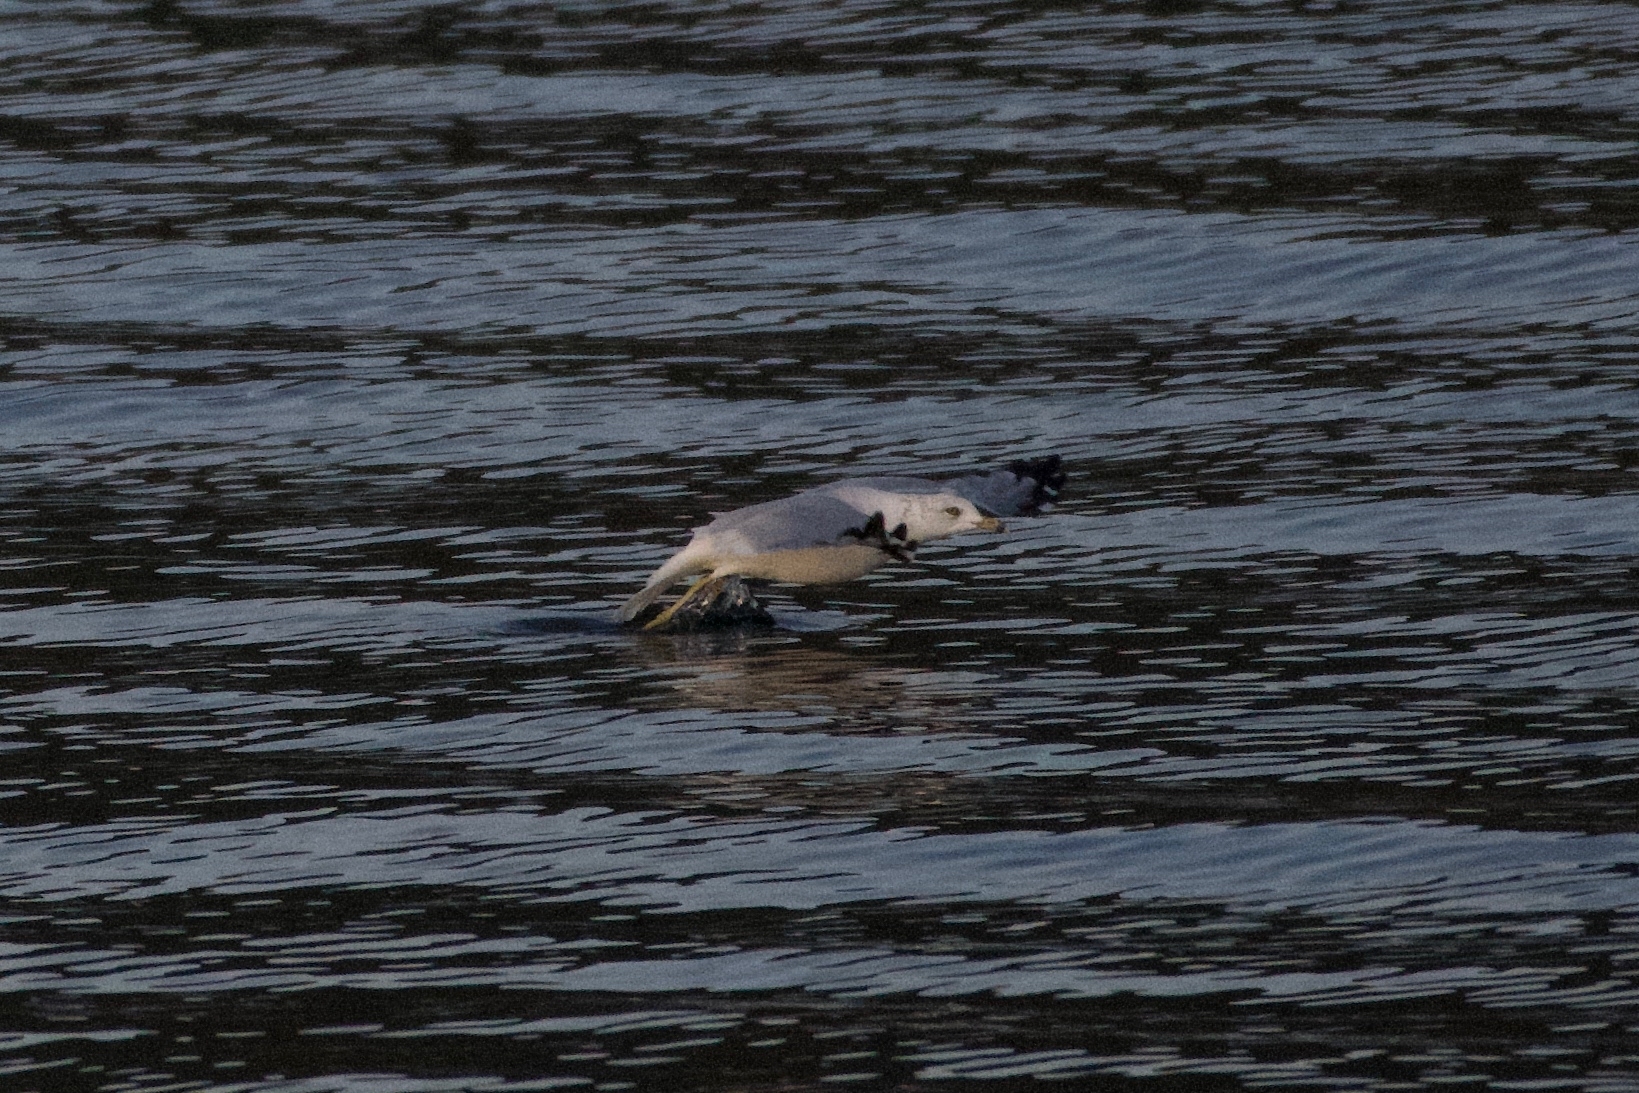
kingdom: Animalia
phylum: Chordata
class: Aves
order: Charadriiformes
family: Laridae
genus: Larus
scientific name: Larus delawarensis
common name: Ring-billed gull
